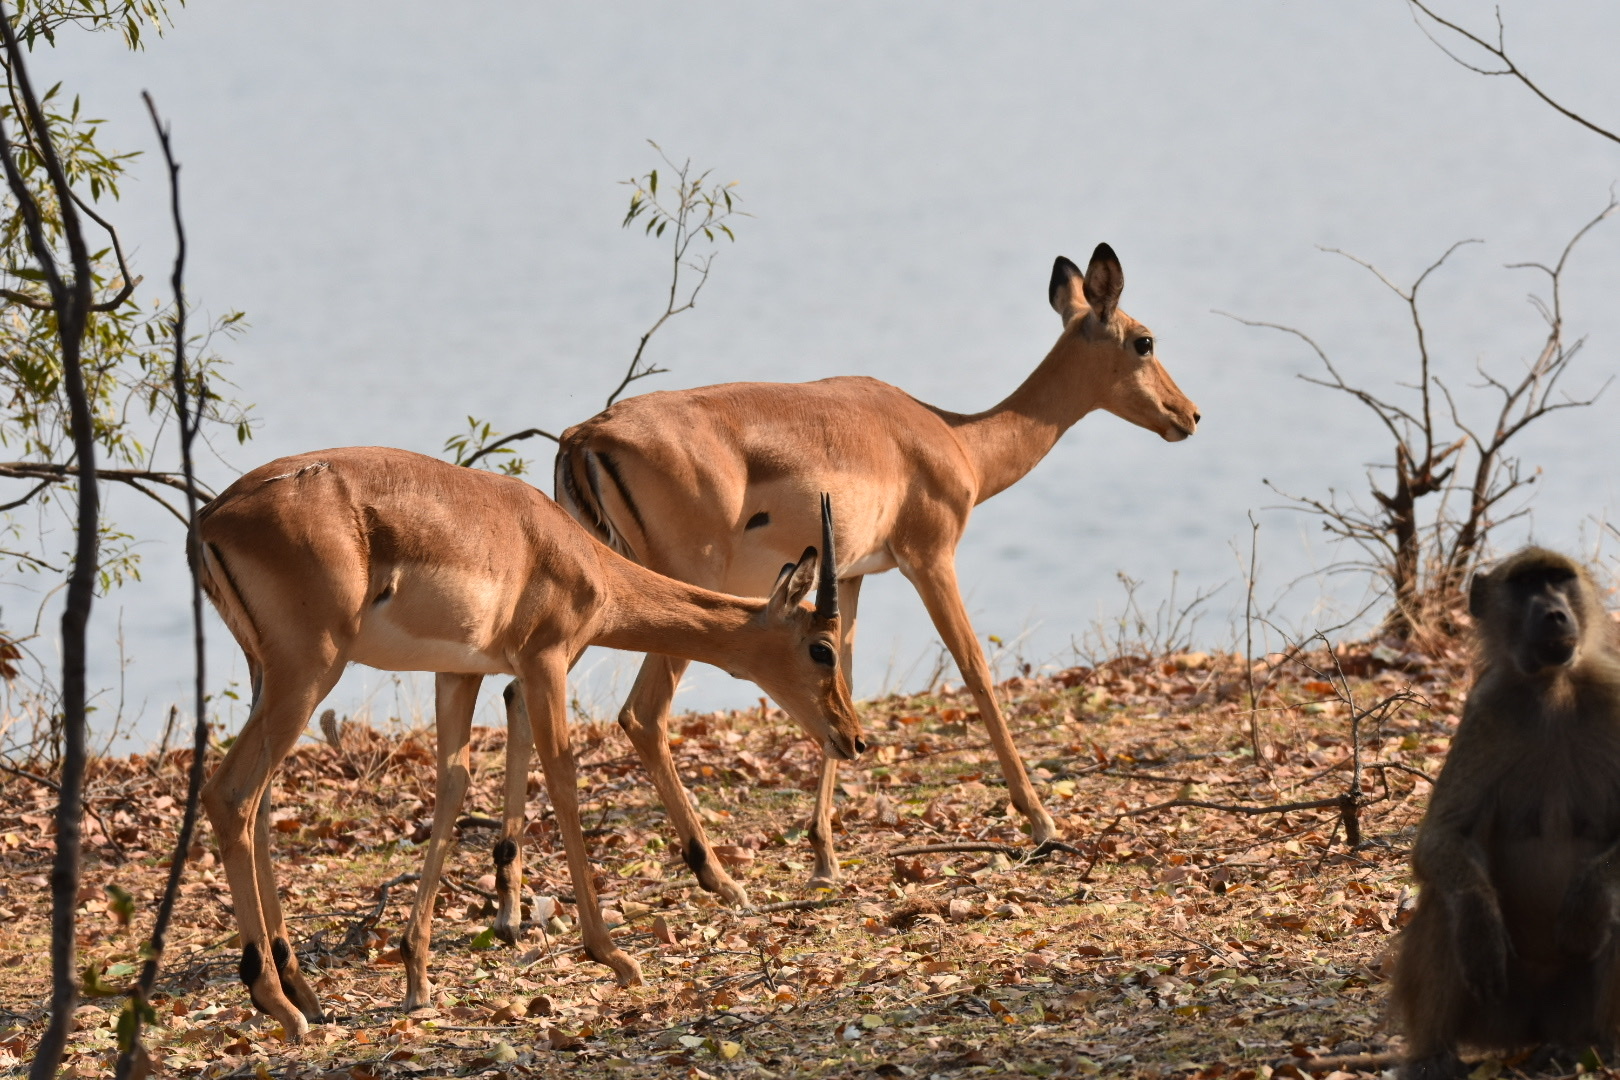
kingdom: Animalia
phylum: Chordata
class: Mammalia
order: Artiodactyla
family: Bovidae
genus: Aepyceros
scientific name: Aepyceros melampus
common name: Impala
